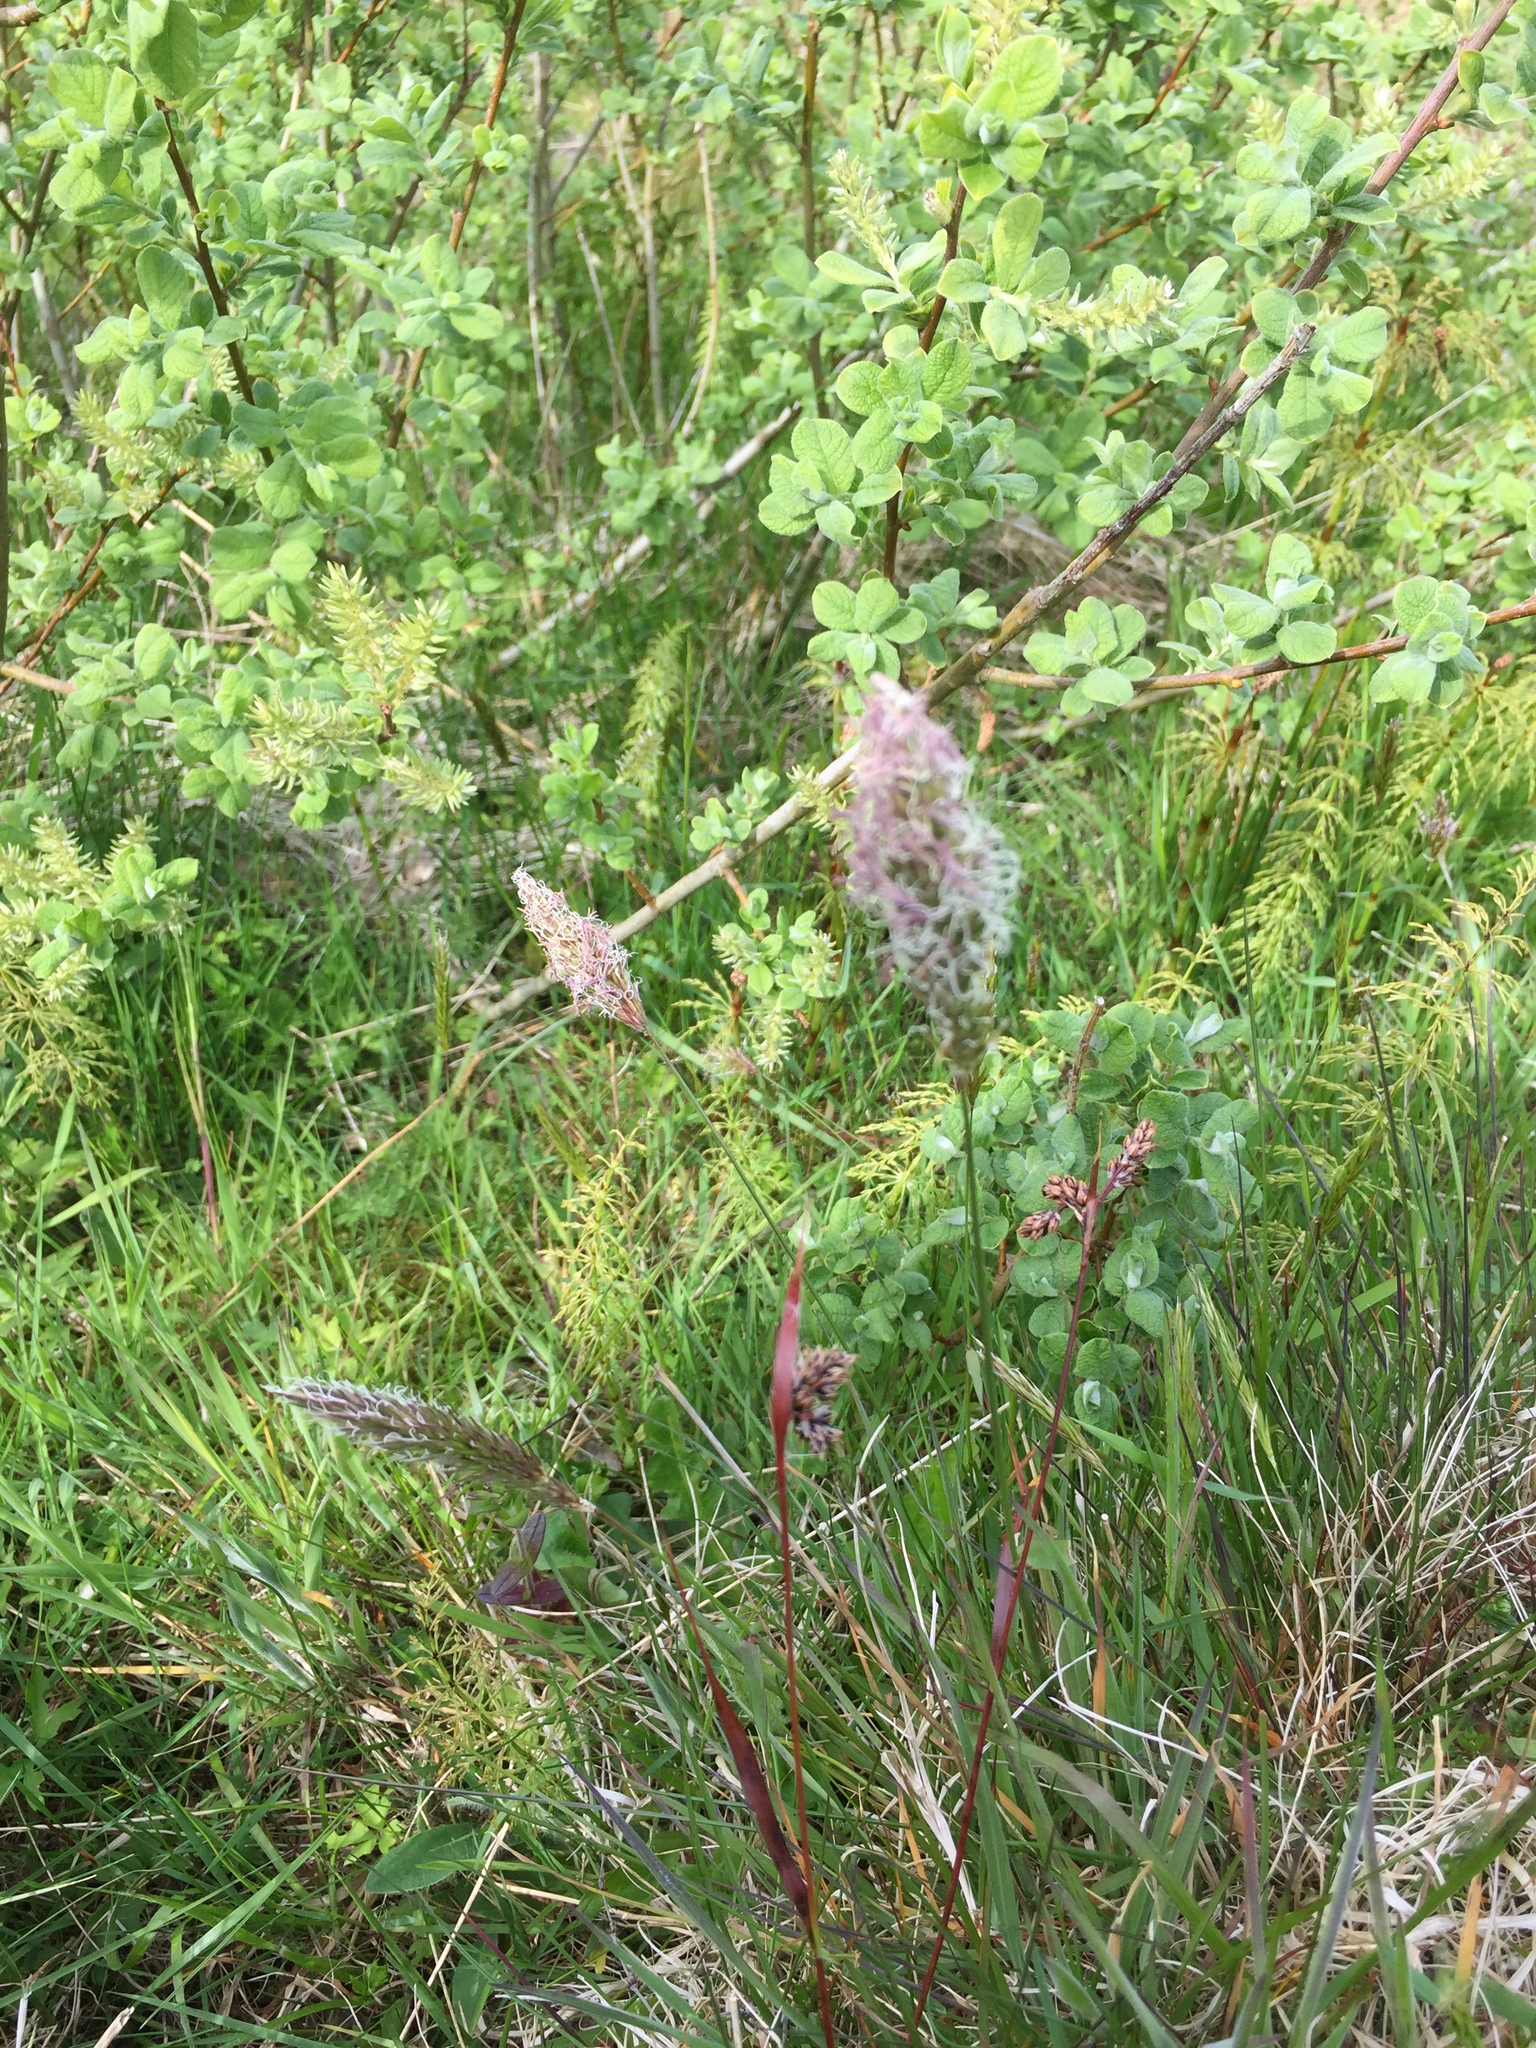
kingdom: Plantae
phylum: Tracheophyta
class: Liliopsida
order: Poales
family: Poaceae
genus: Anthoxanthum
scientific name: Anthoxanthum odoratum
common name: Sweet vernalgrass
